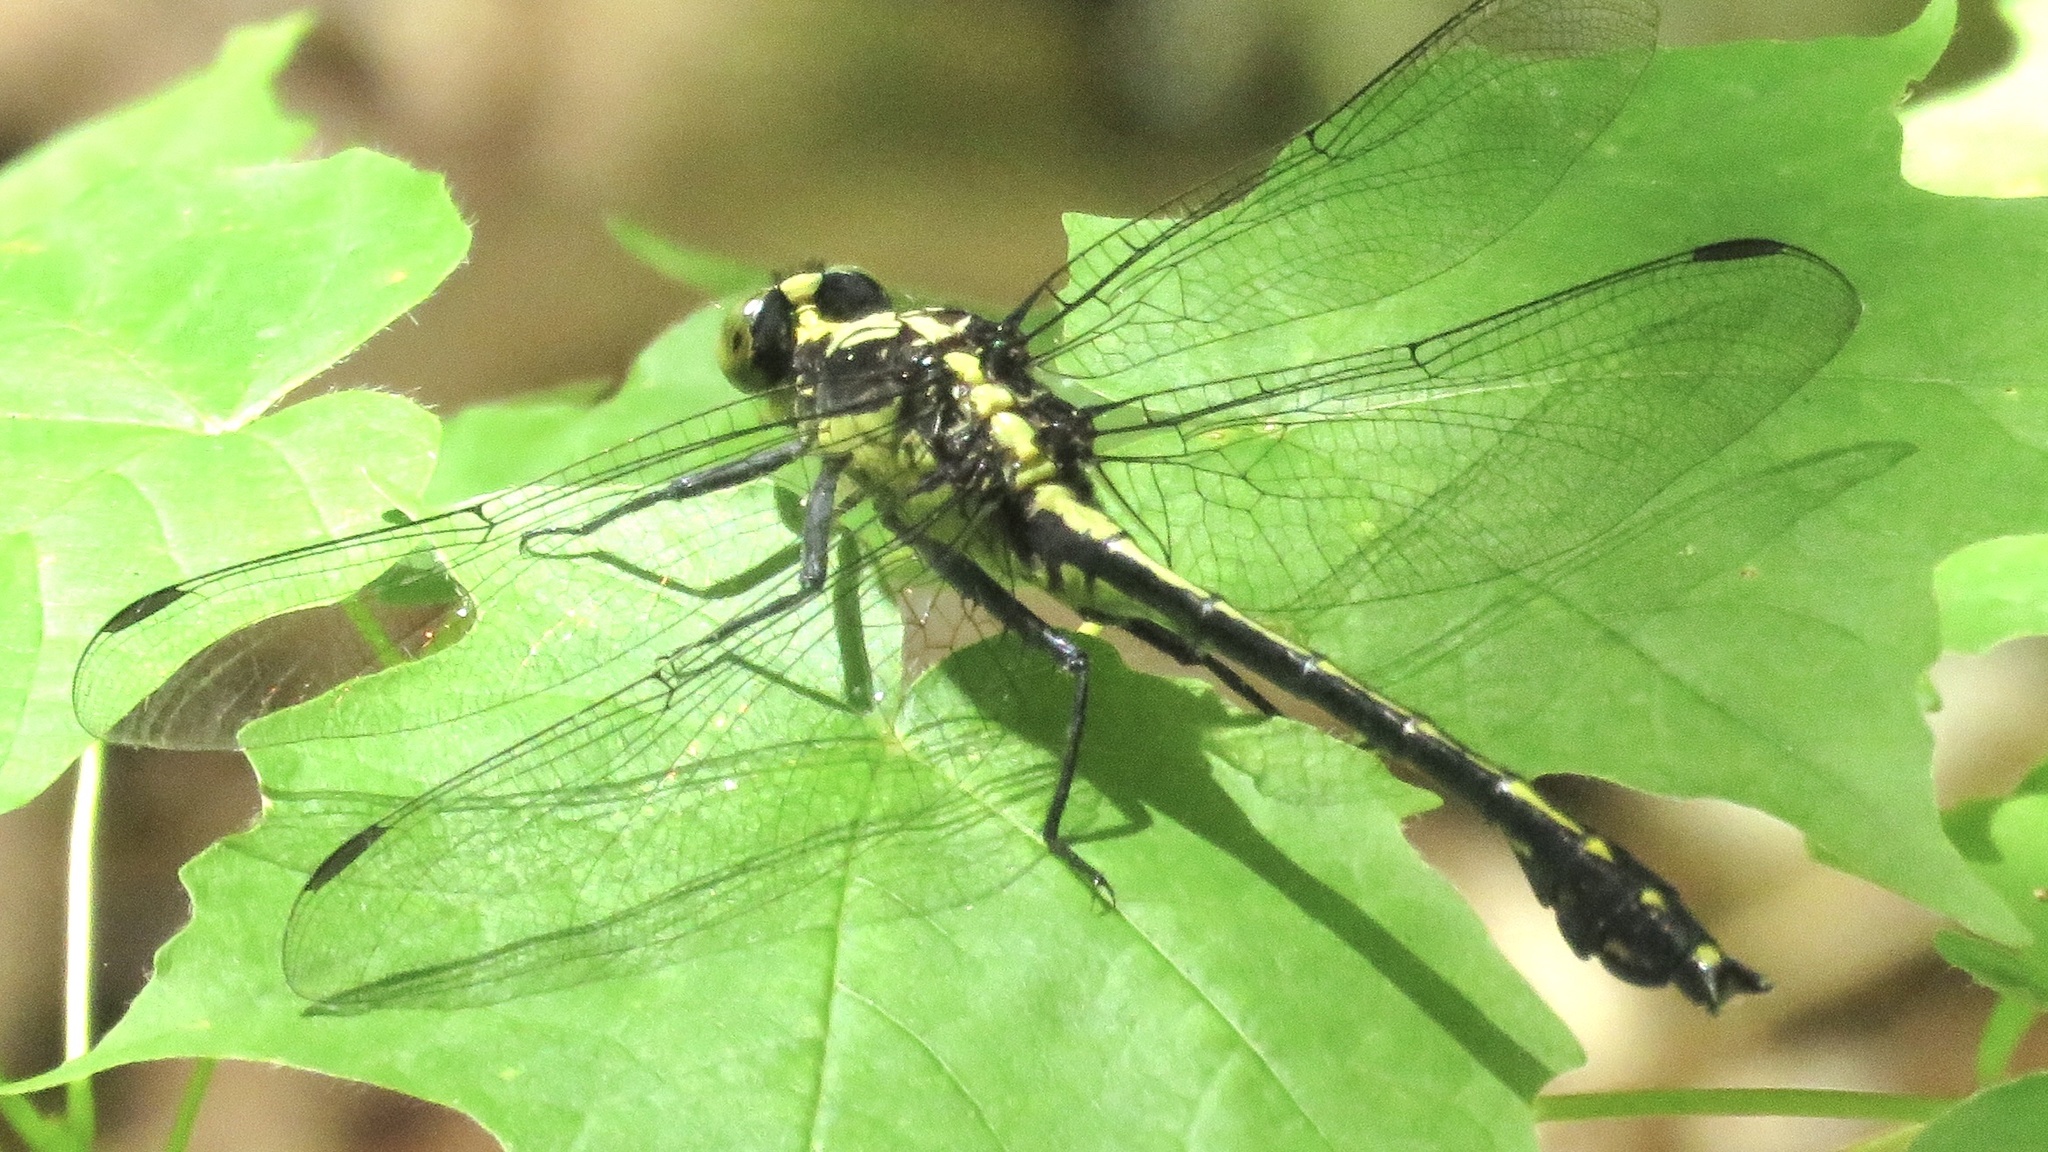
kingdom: Animalia
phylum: Arthropoda
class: Insecta
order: Odonata
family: Gomphidae
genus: Dromogomphus
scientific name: Dromogomphus spinosus
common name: Black-shouldered spinyleg
